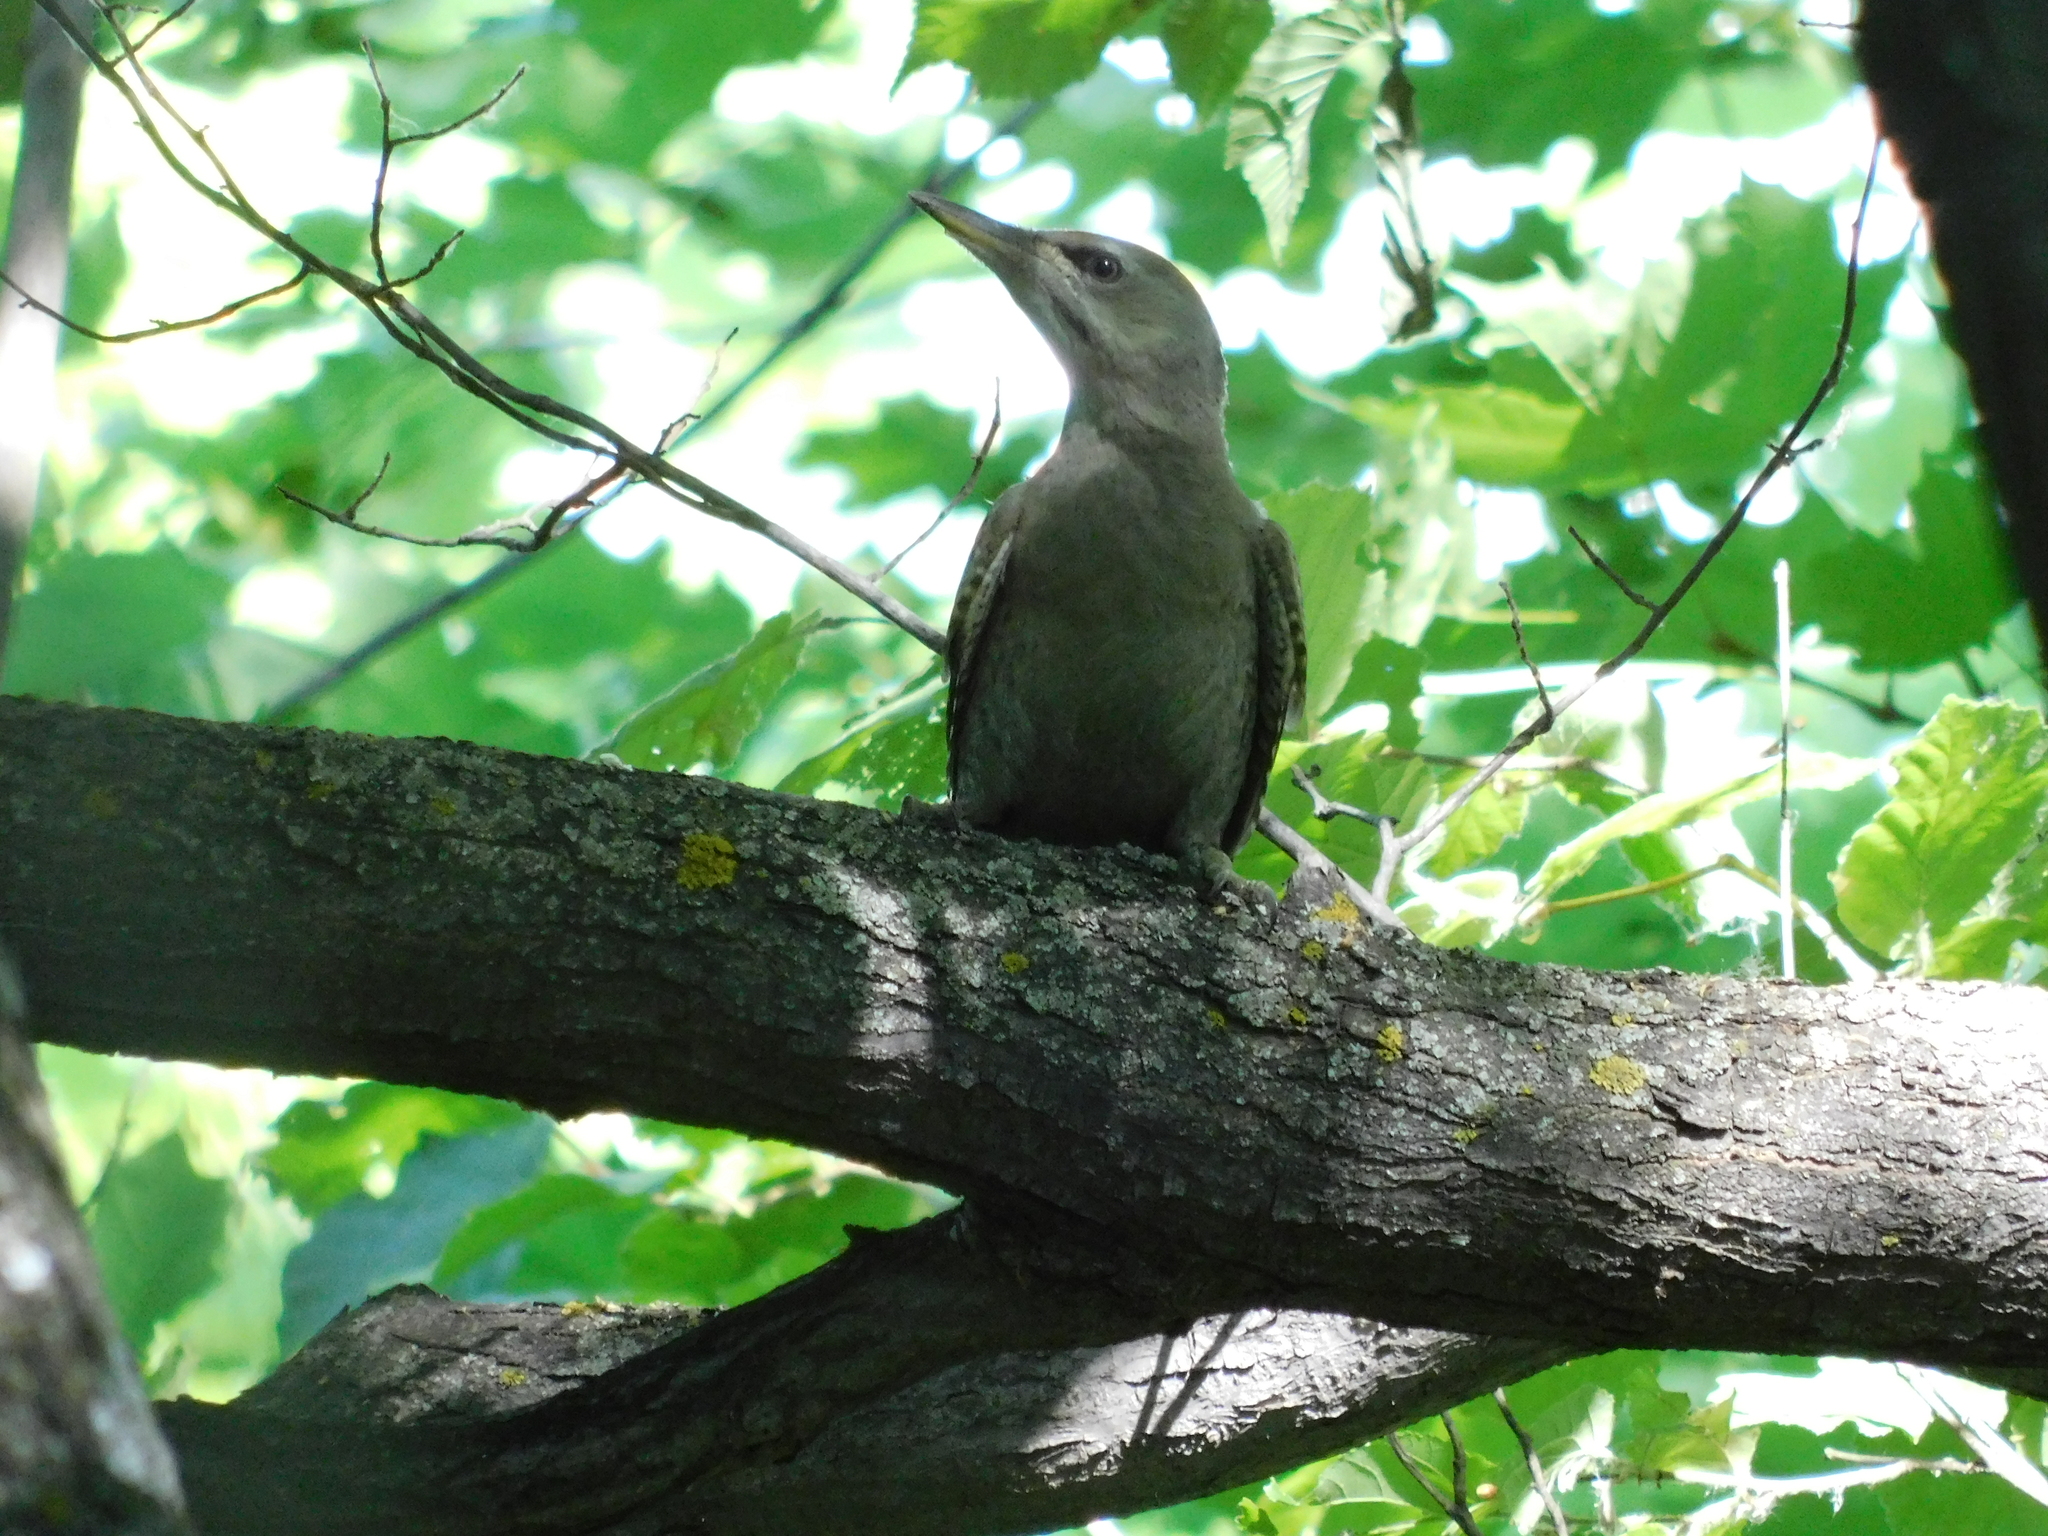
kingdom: Animalia
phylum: Chordata
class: Aves
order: Piciformes
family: Picidae
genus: Picus
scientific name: Picus canus
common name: Grey-headed woodpecker
